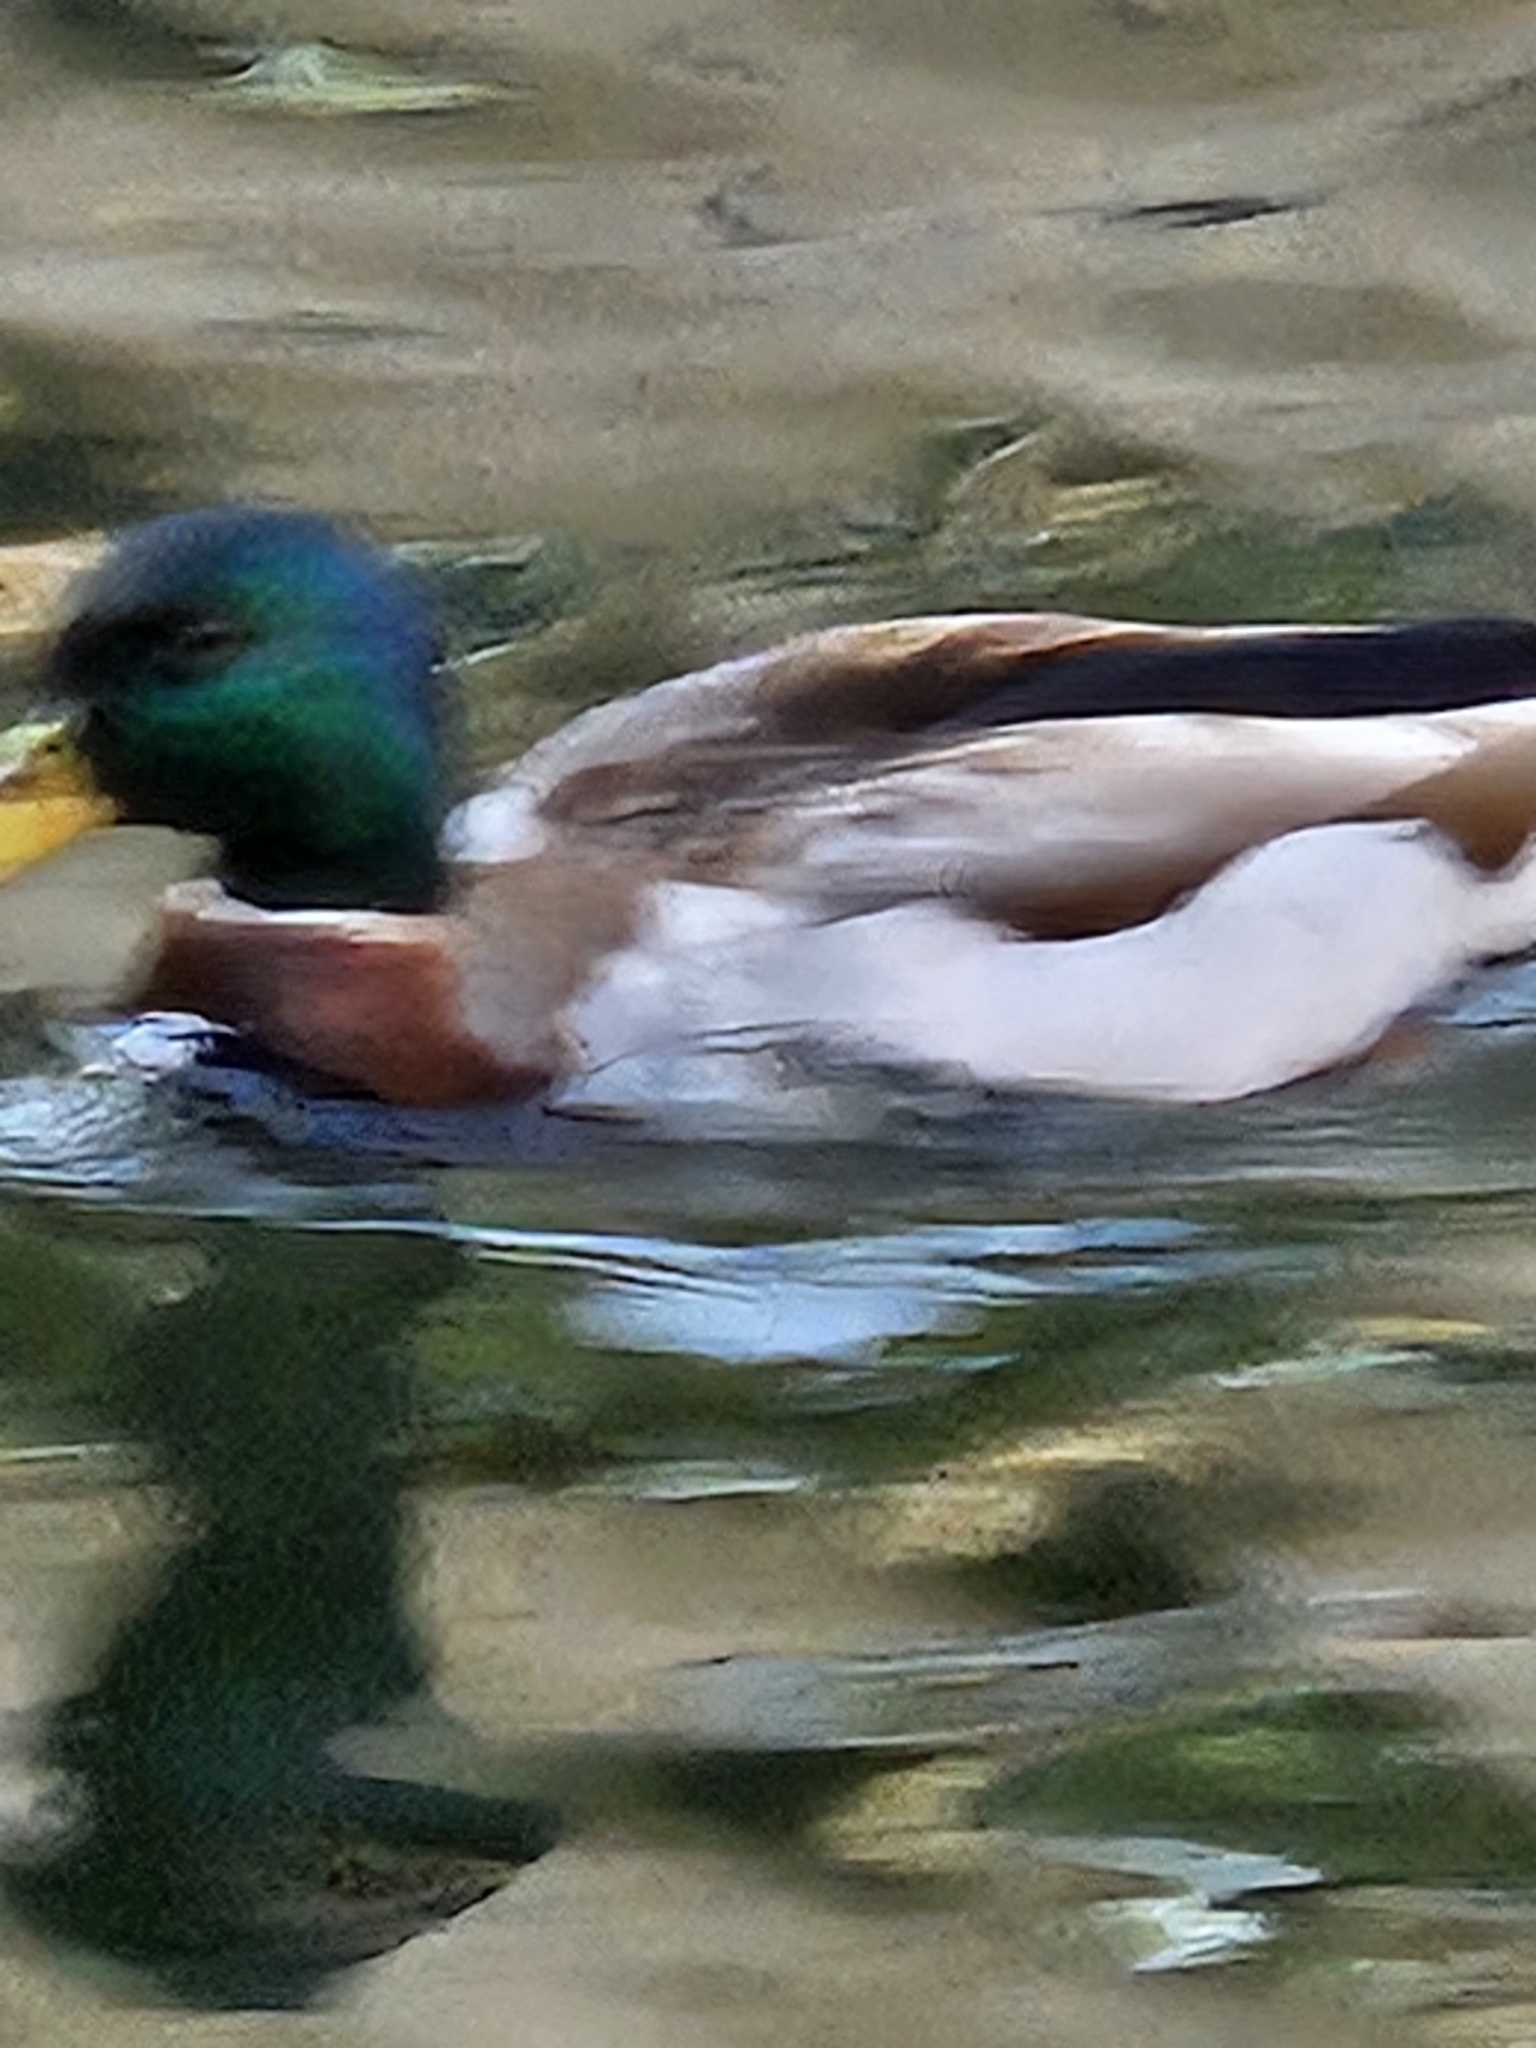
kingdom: Animalia
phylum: Chordata
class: Aves
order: Anseriformes
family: Anatidae
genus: Anas
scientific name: Anas platyrhynchos
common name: Mallard
